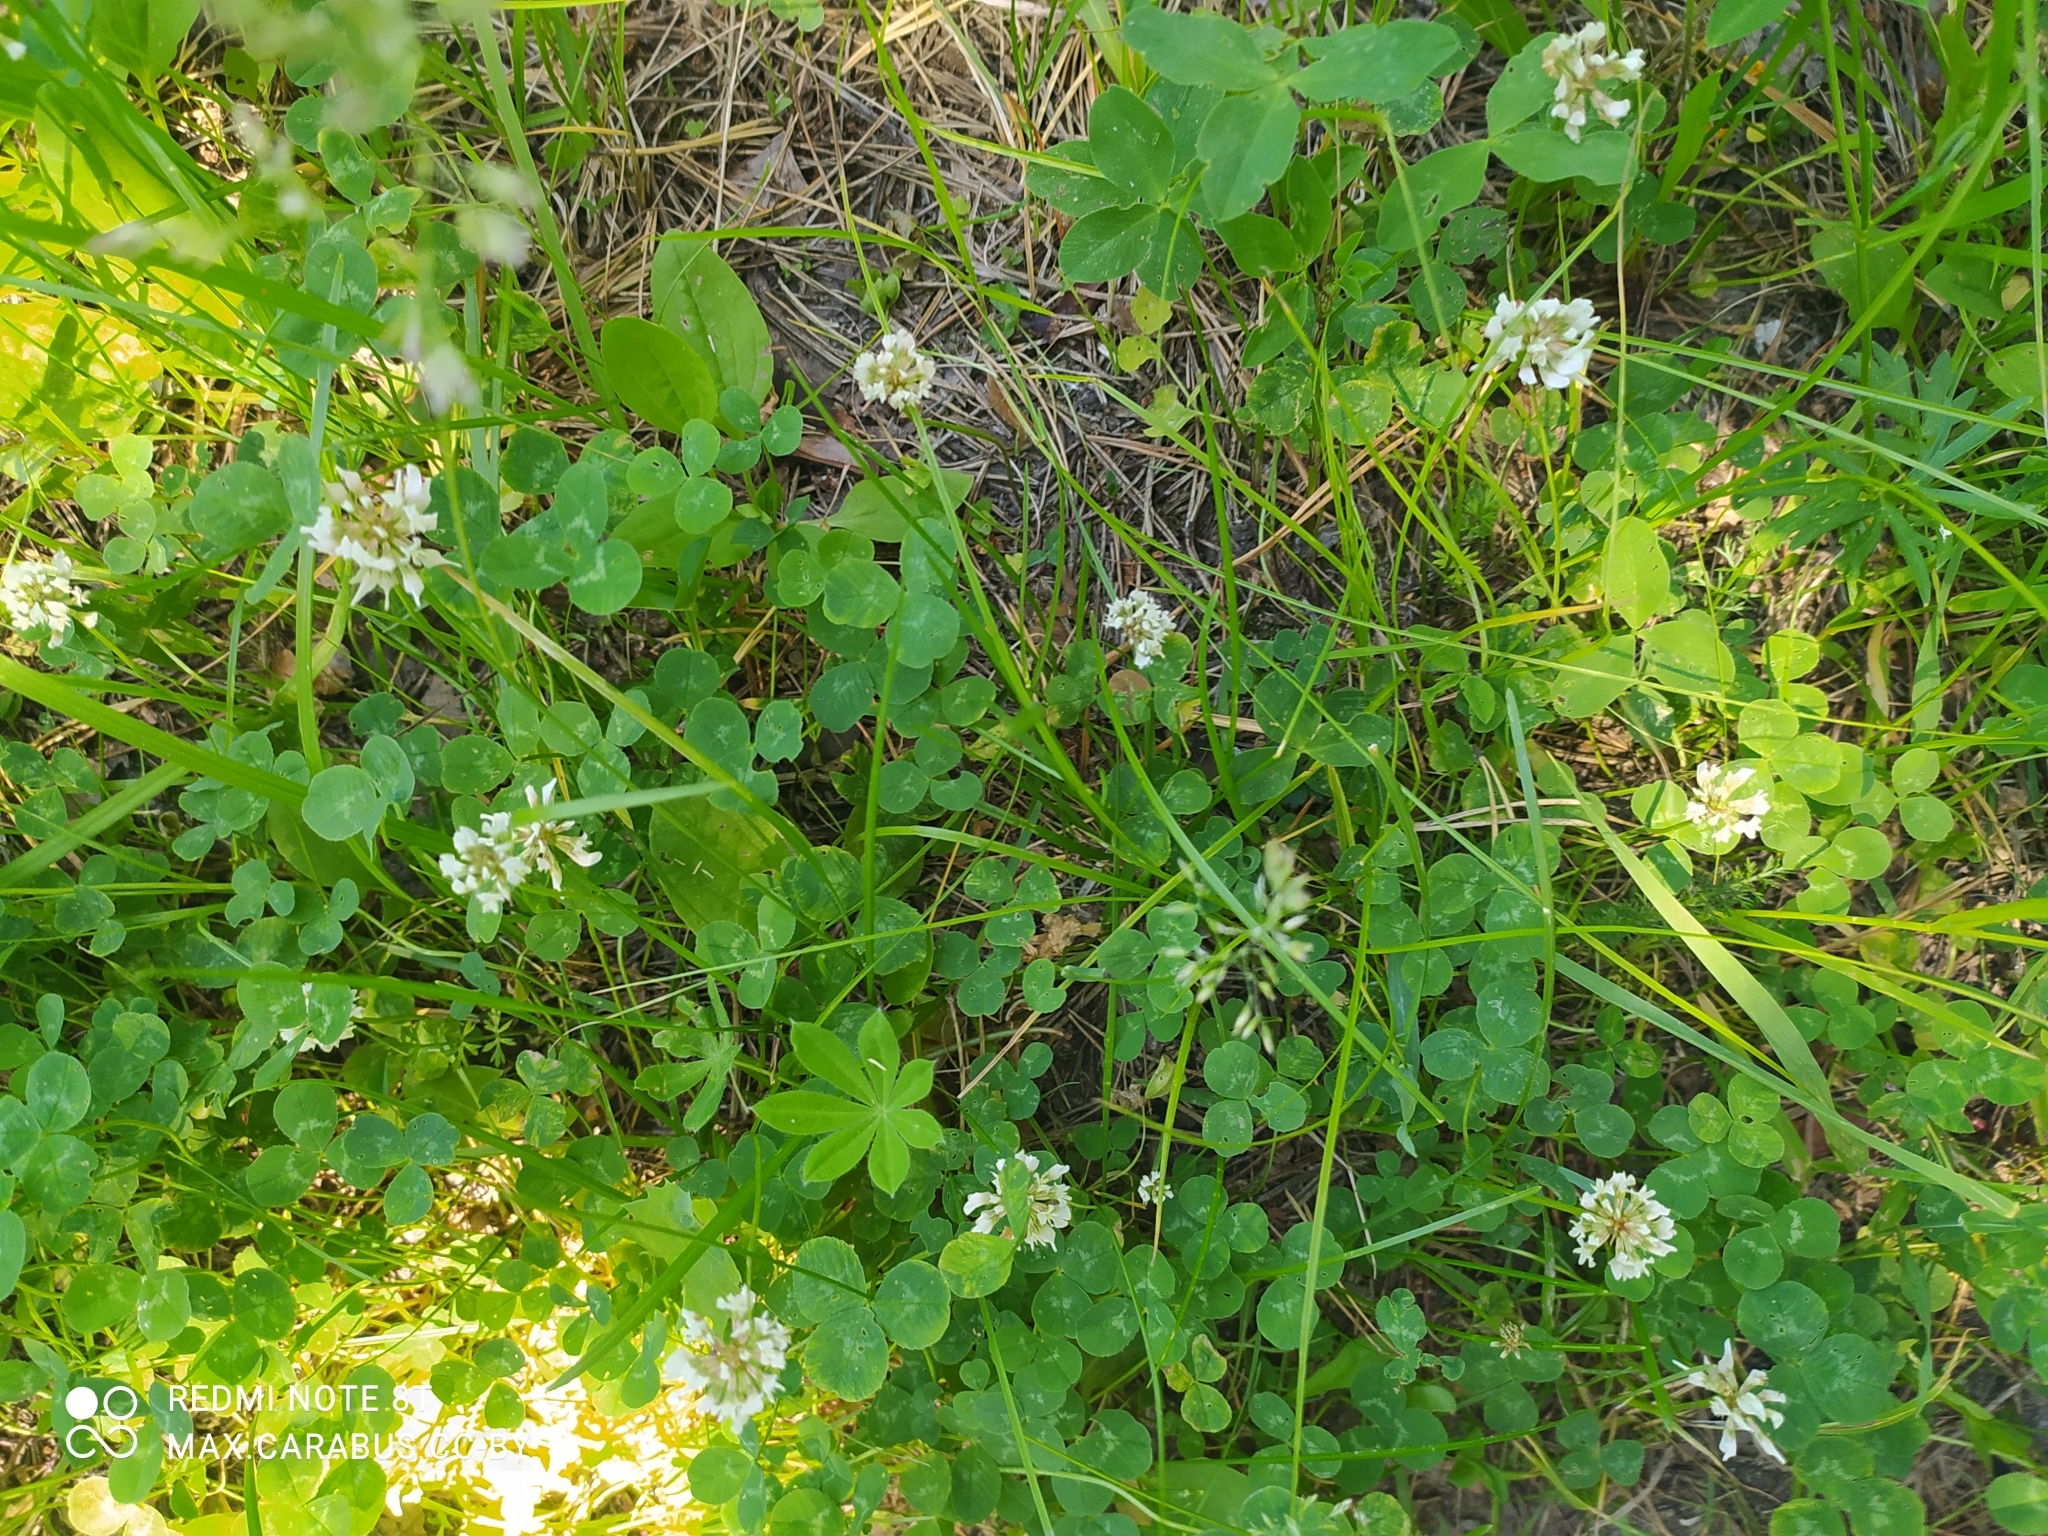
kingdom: Plantae
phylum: Tracheophyta
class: Magnoliopsida
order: Fabales
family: Fabaceae
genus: Trifolium
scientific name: Trifolium repens
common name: White clover
